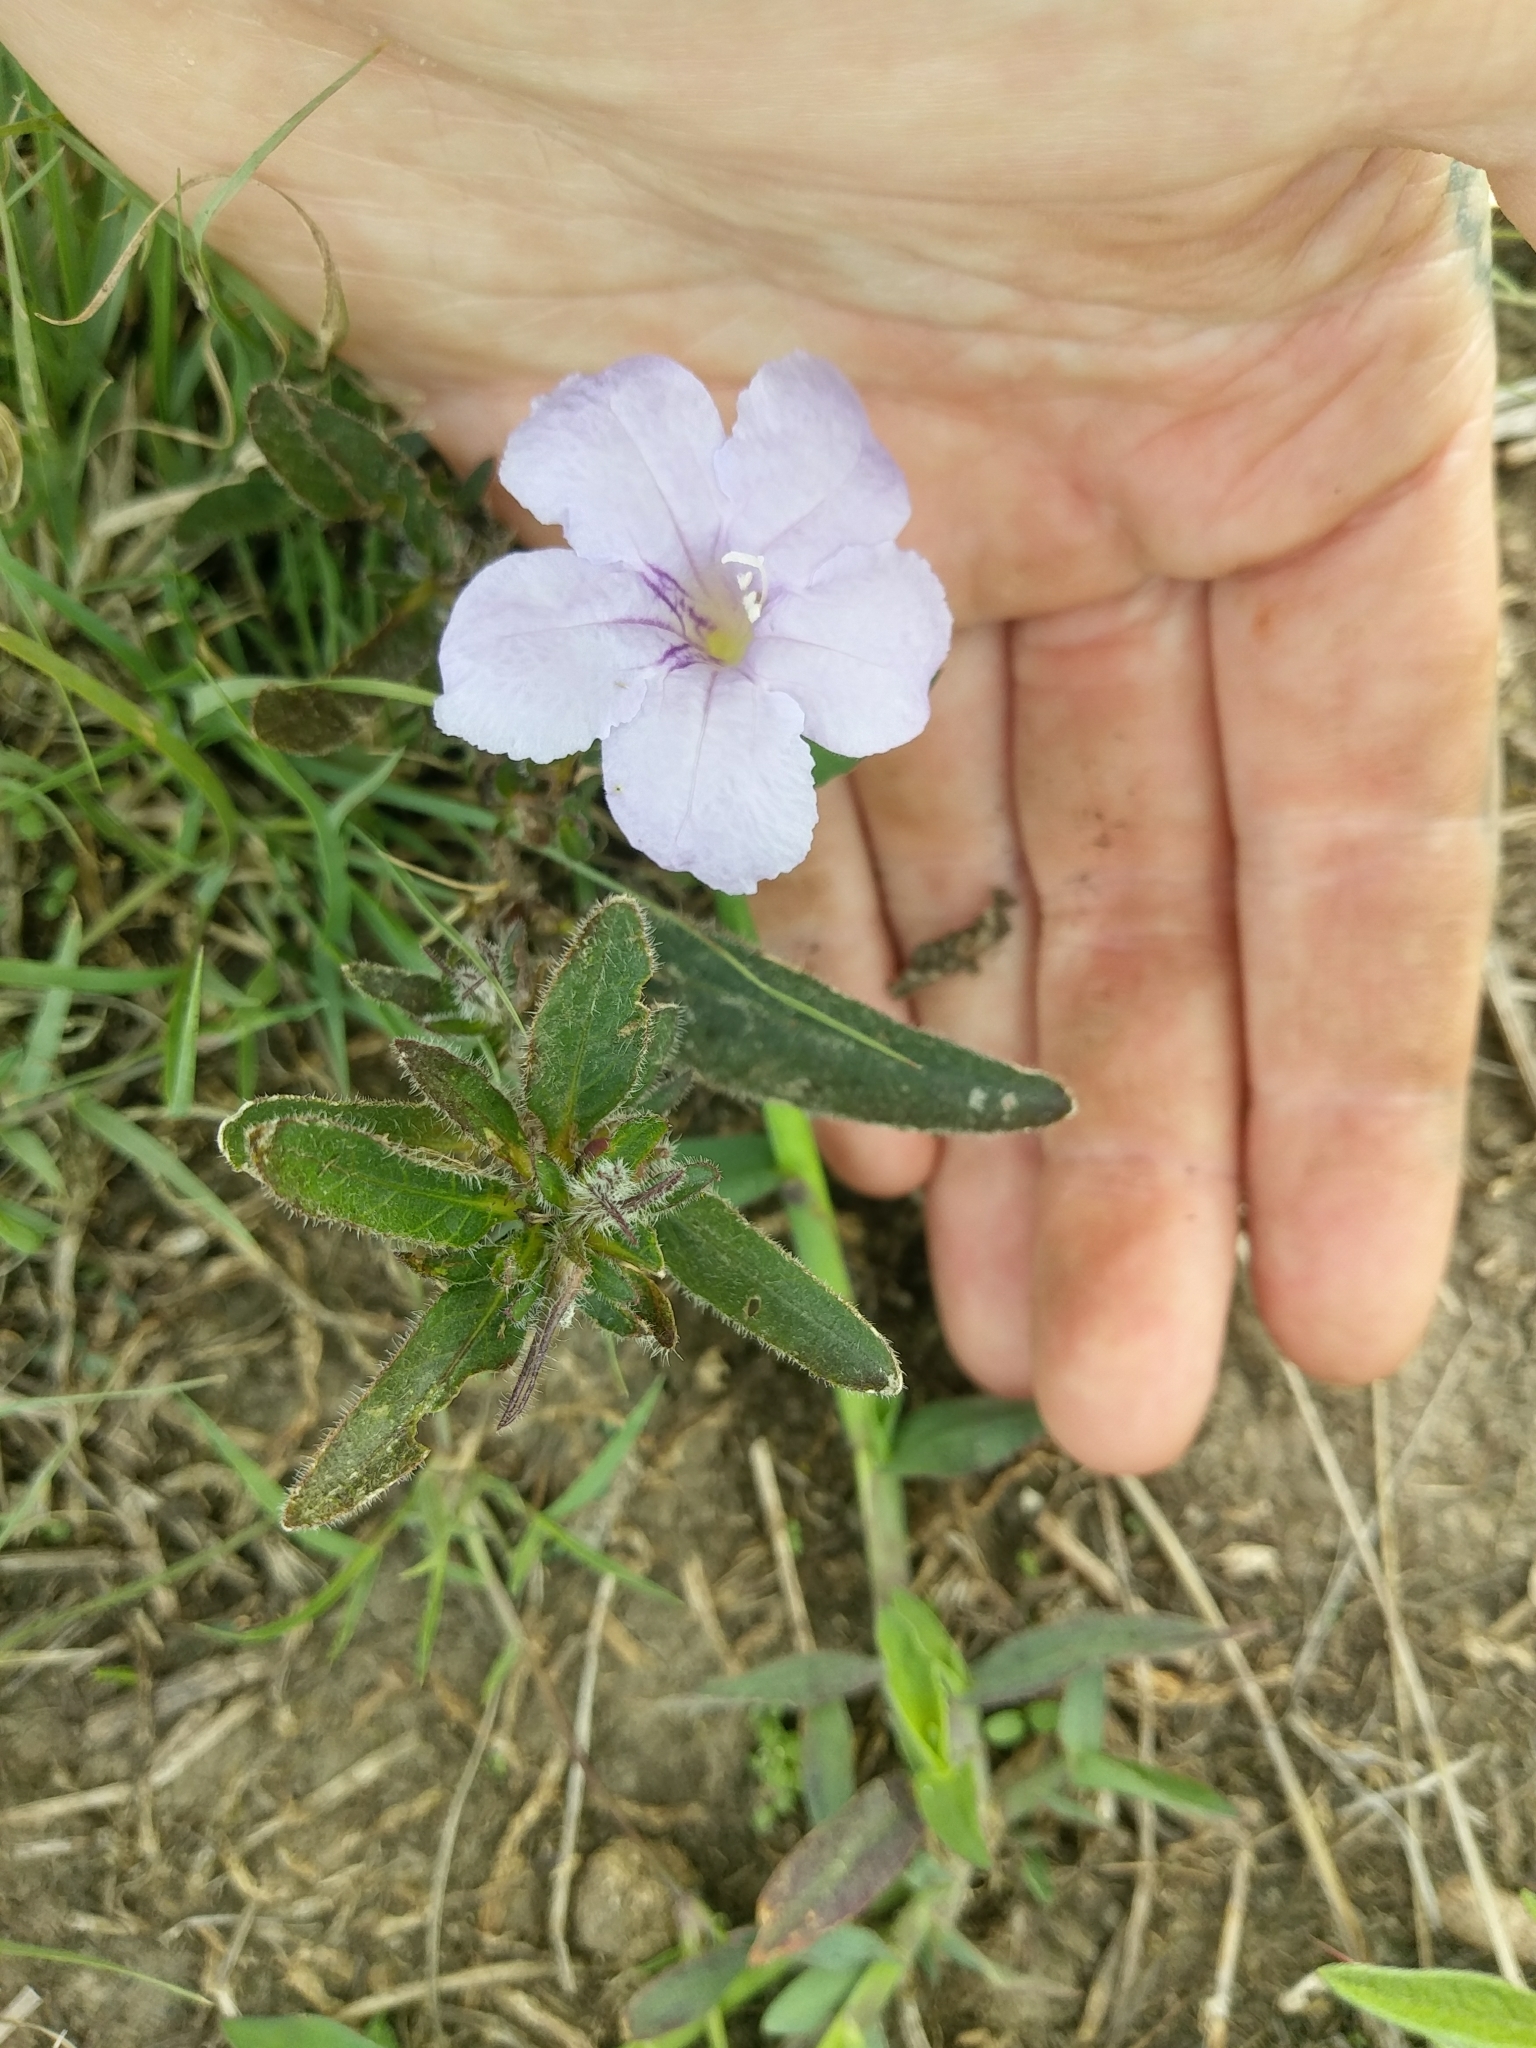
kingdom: Plantae
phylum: Tracheophyta
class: Magnoliopsida
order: Lamiales
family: Acanthaceae
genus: Ruellia
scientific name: Ruellia humilis
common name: Fringe-leaf ruellia
